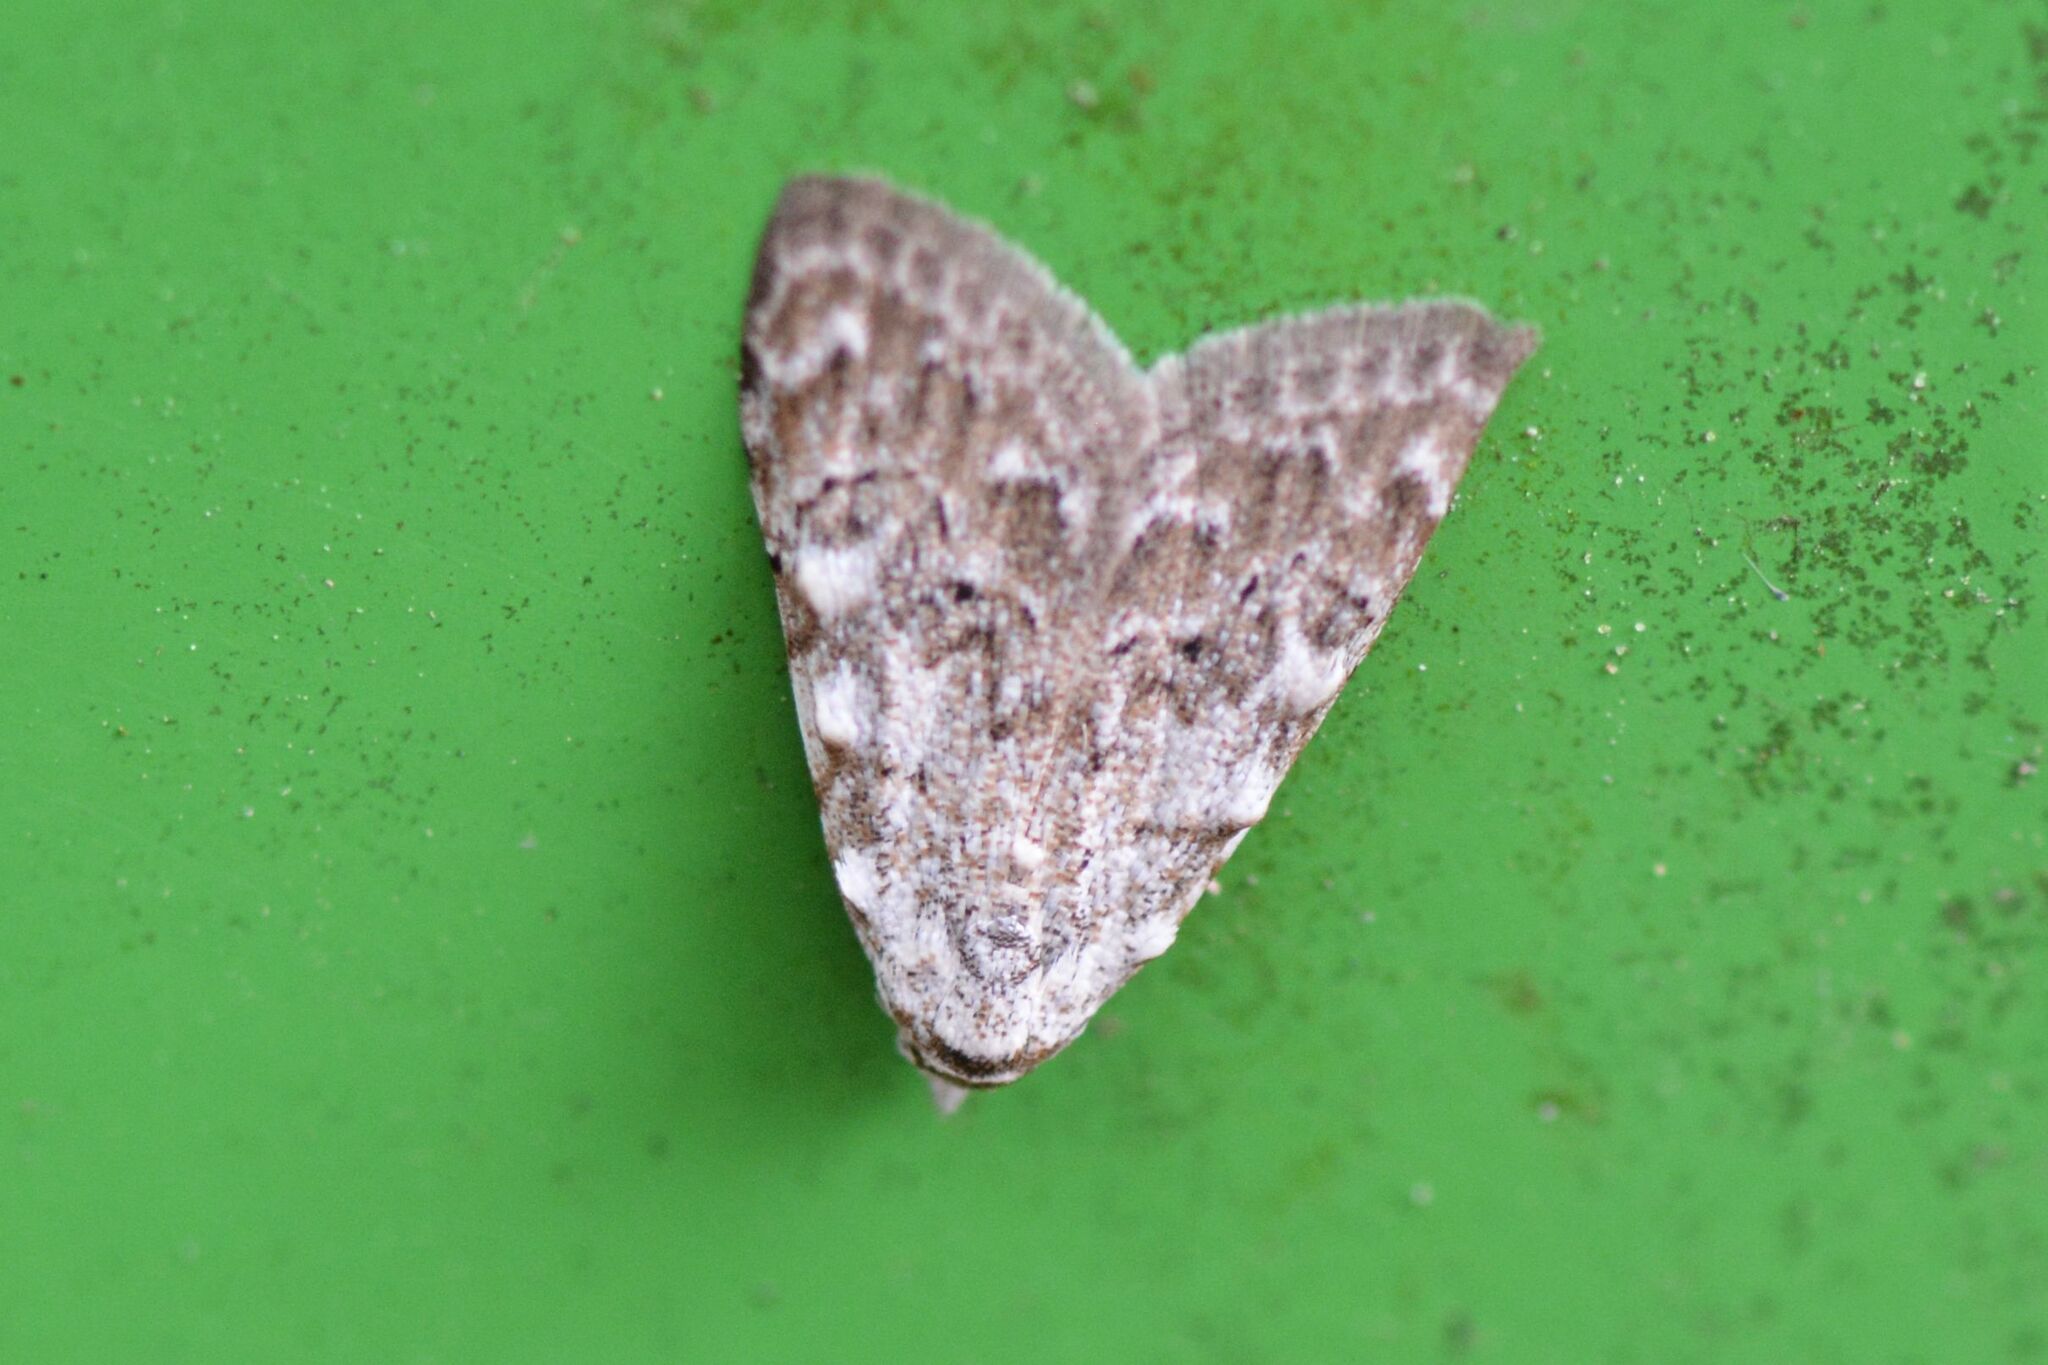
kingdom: Animalia
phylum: Arthropoda
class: Insecta
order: Lepidoptera
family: Nolidae
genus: Nola
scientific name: Nola confusalis
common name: Least black arches
